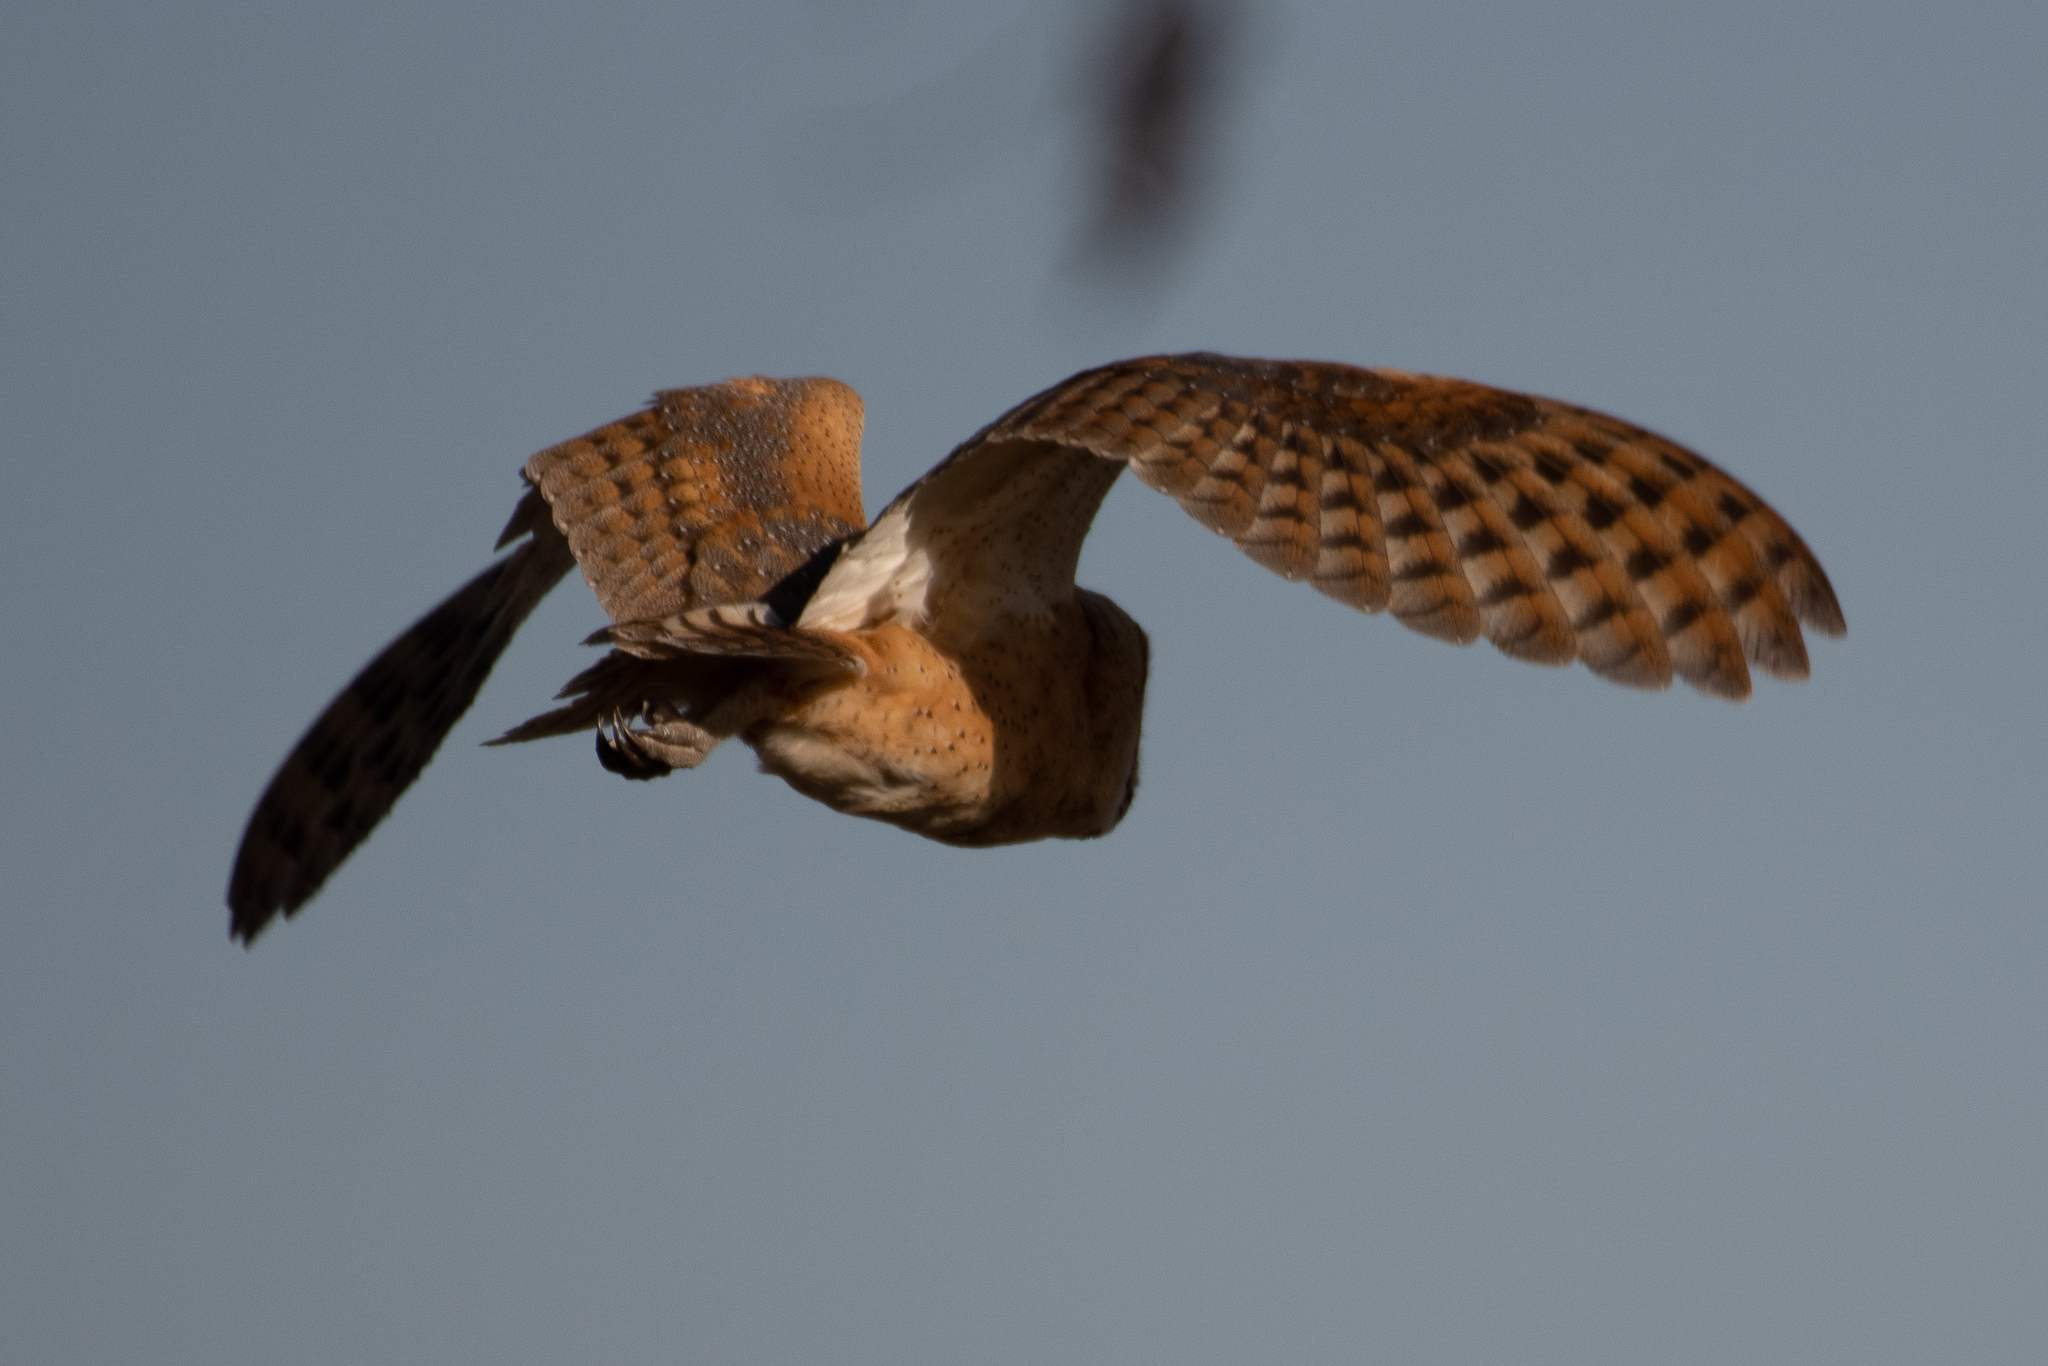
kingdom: Animalia
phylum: Chordata
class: Aves
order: Strigiformes
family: Tytonidae
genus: Tyto
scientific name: Tyto alba
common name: Barn owl
